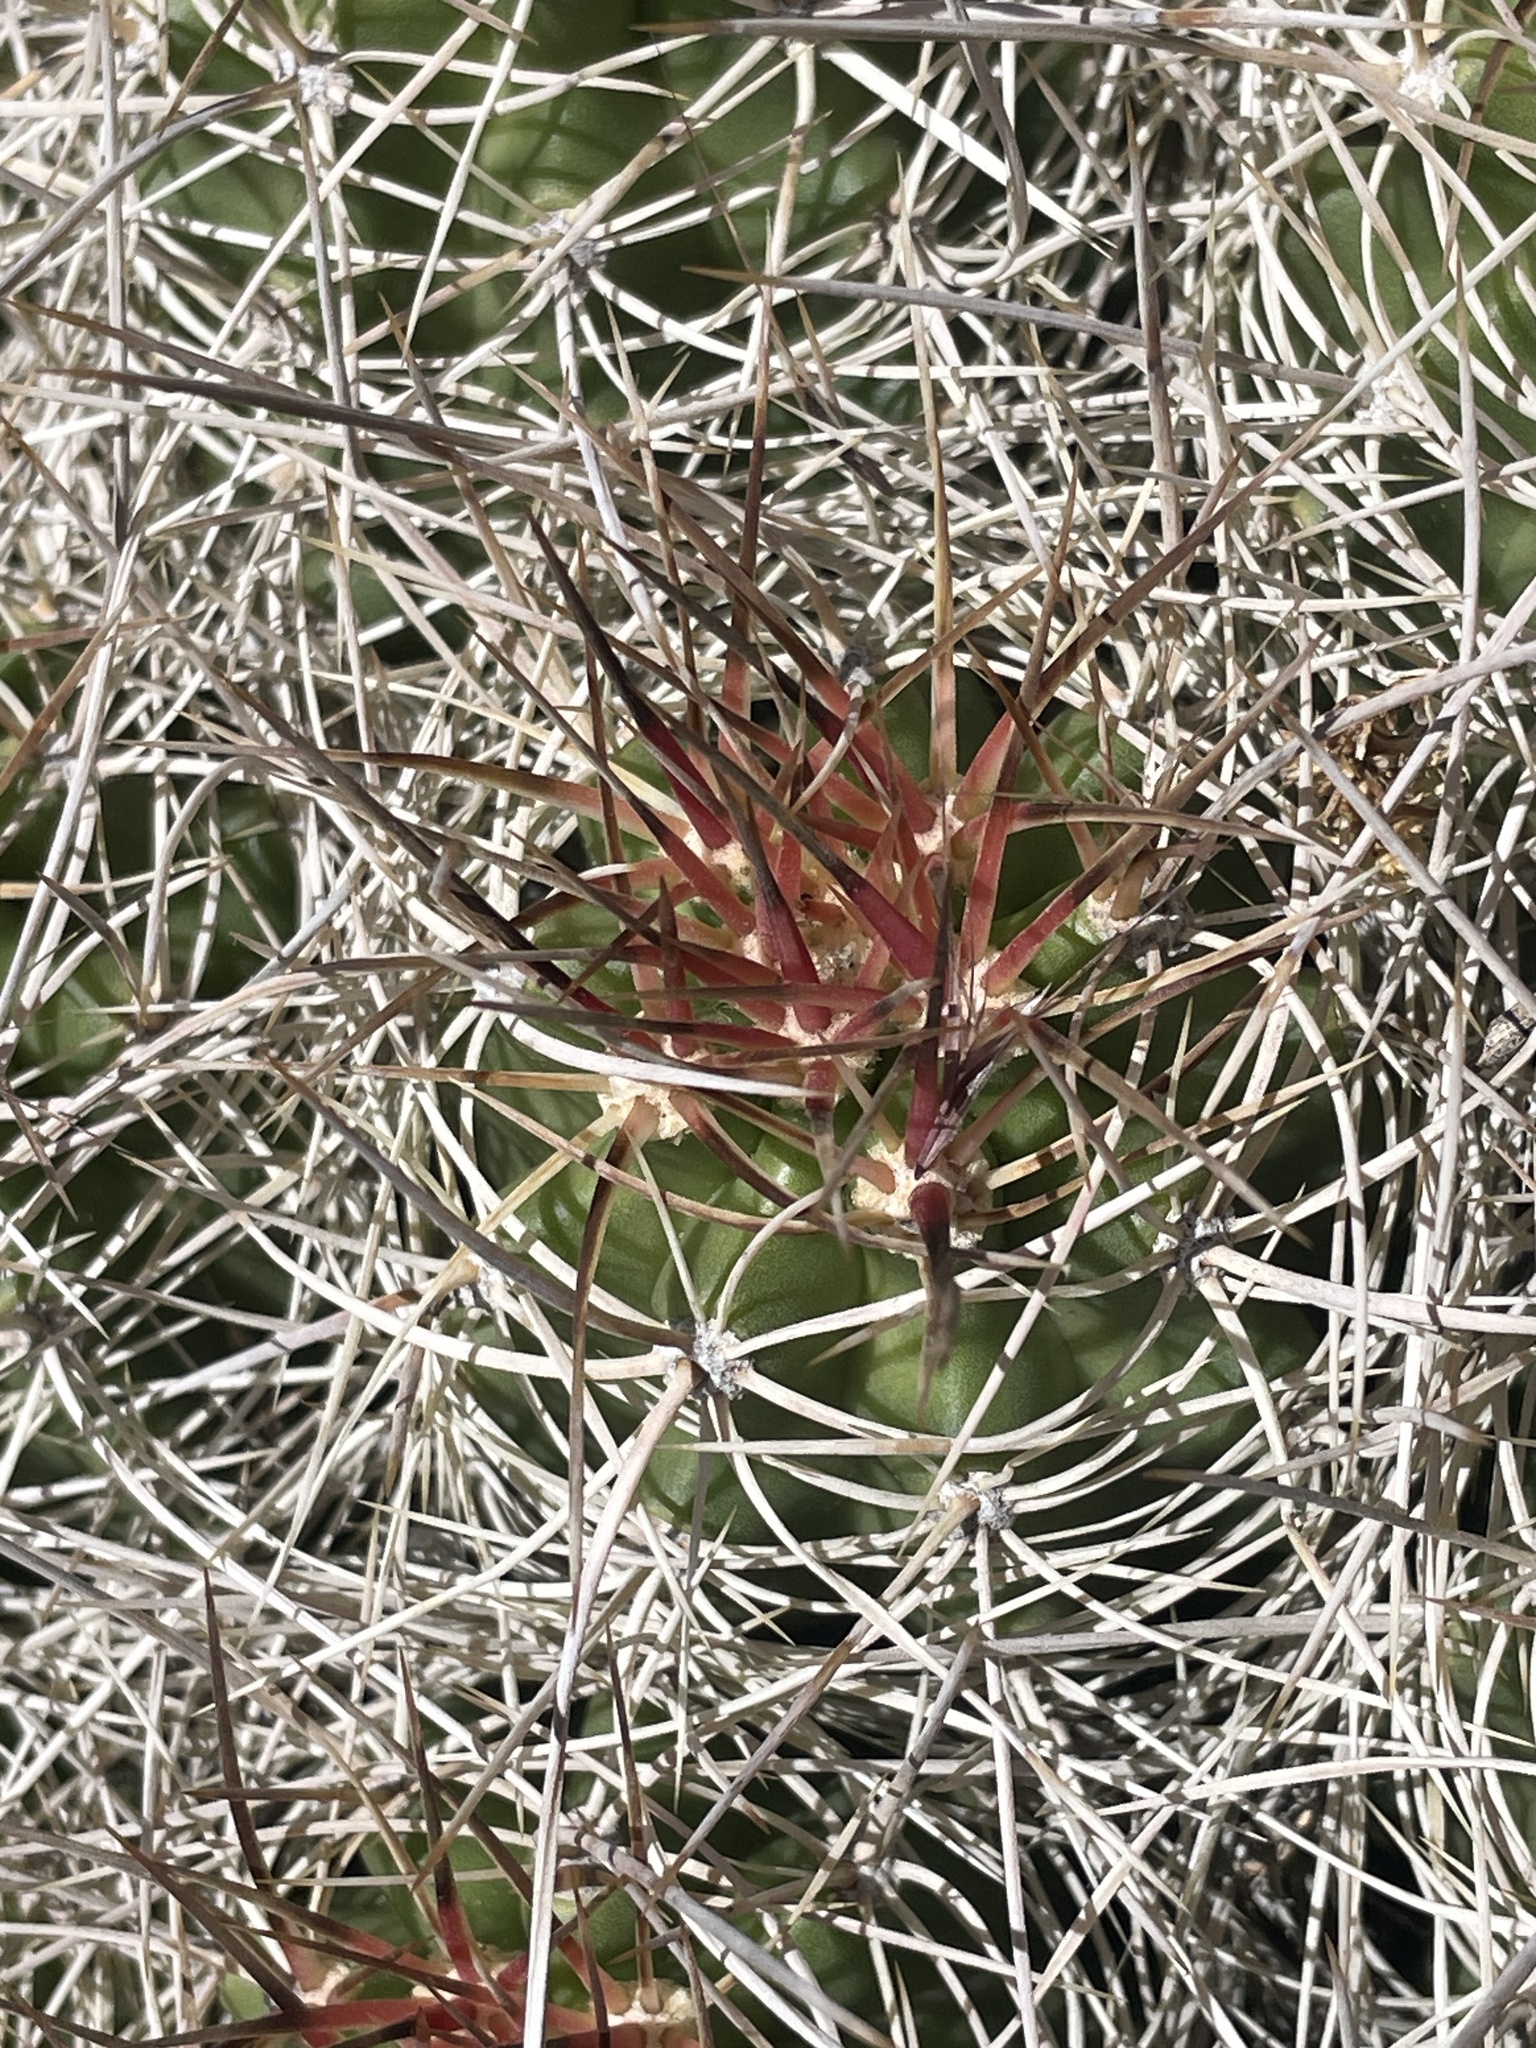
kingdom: Plantae
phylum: Tracheophyta
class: Magnoliopsida
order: Caryophyllales
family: Cactaceae
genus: Echinocereus
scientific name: Echinocereus triglochidiatus
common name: Claretcup hedgehog
